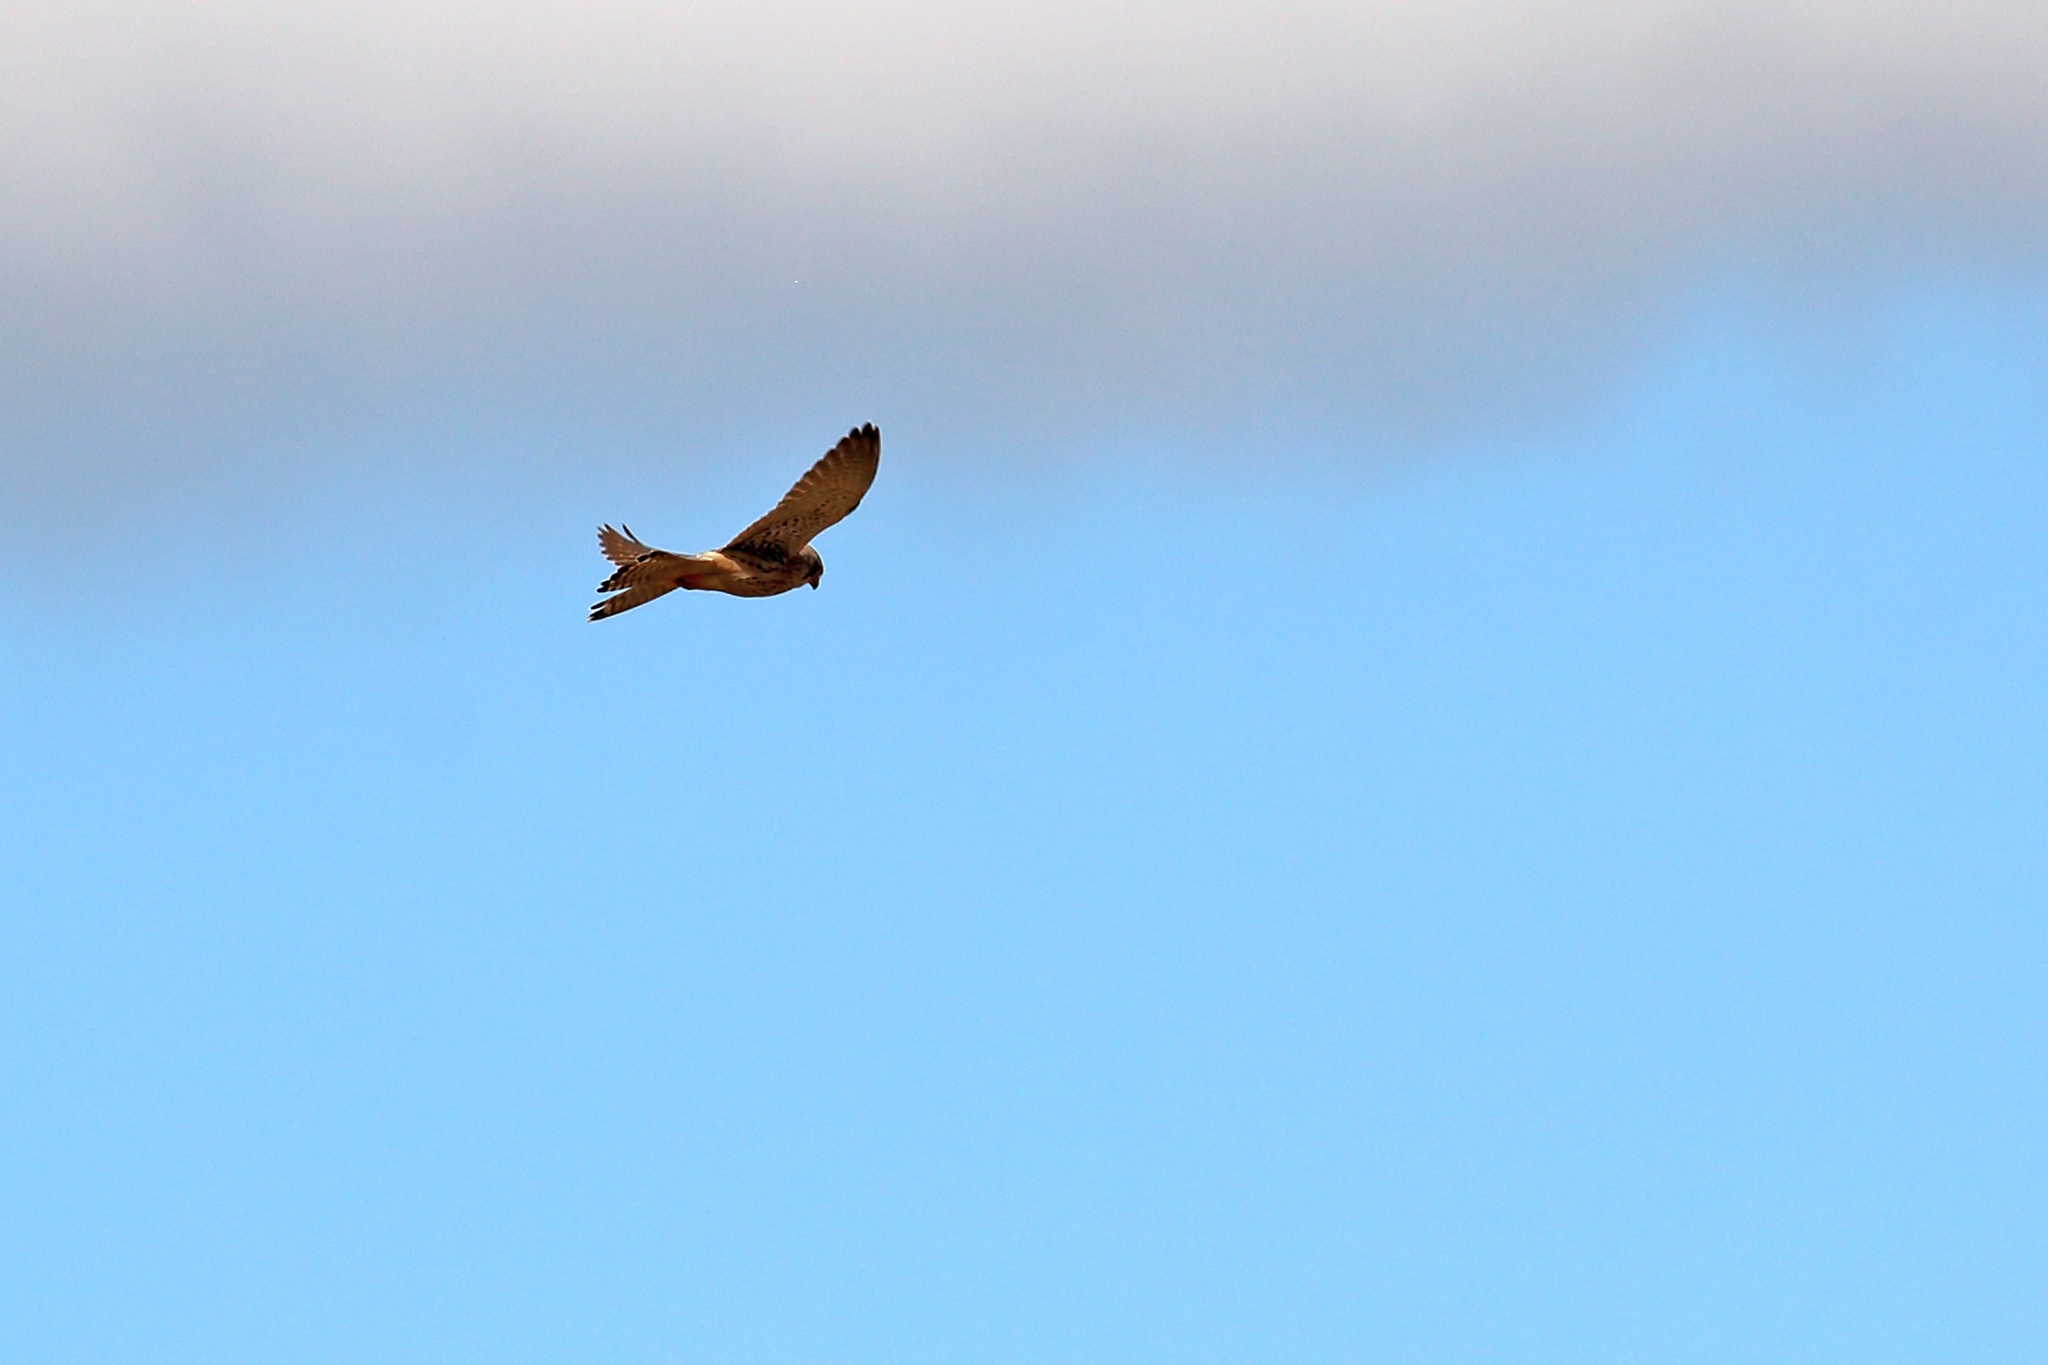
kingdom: Animalia
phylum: Chordata
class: Aves
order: Falconiformes
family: Falconidae
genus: Falco
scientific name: Falco tinnunculus
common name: Common kestrel
